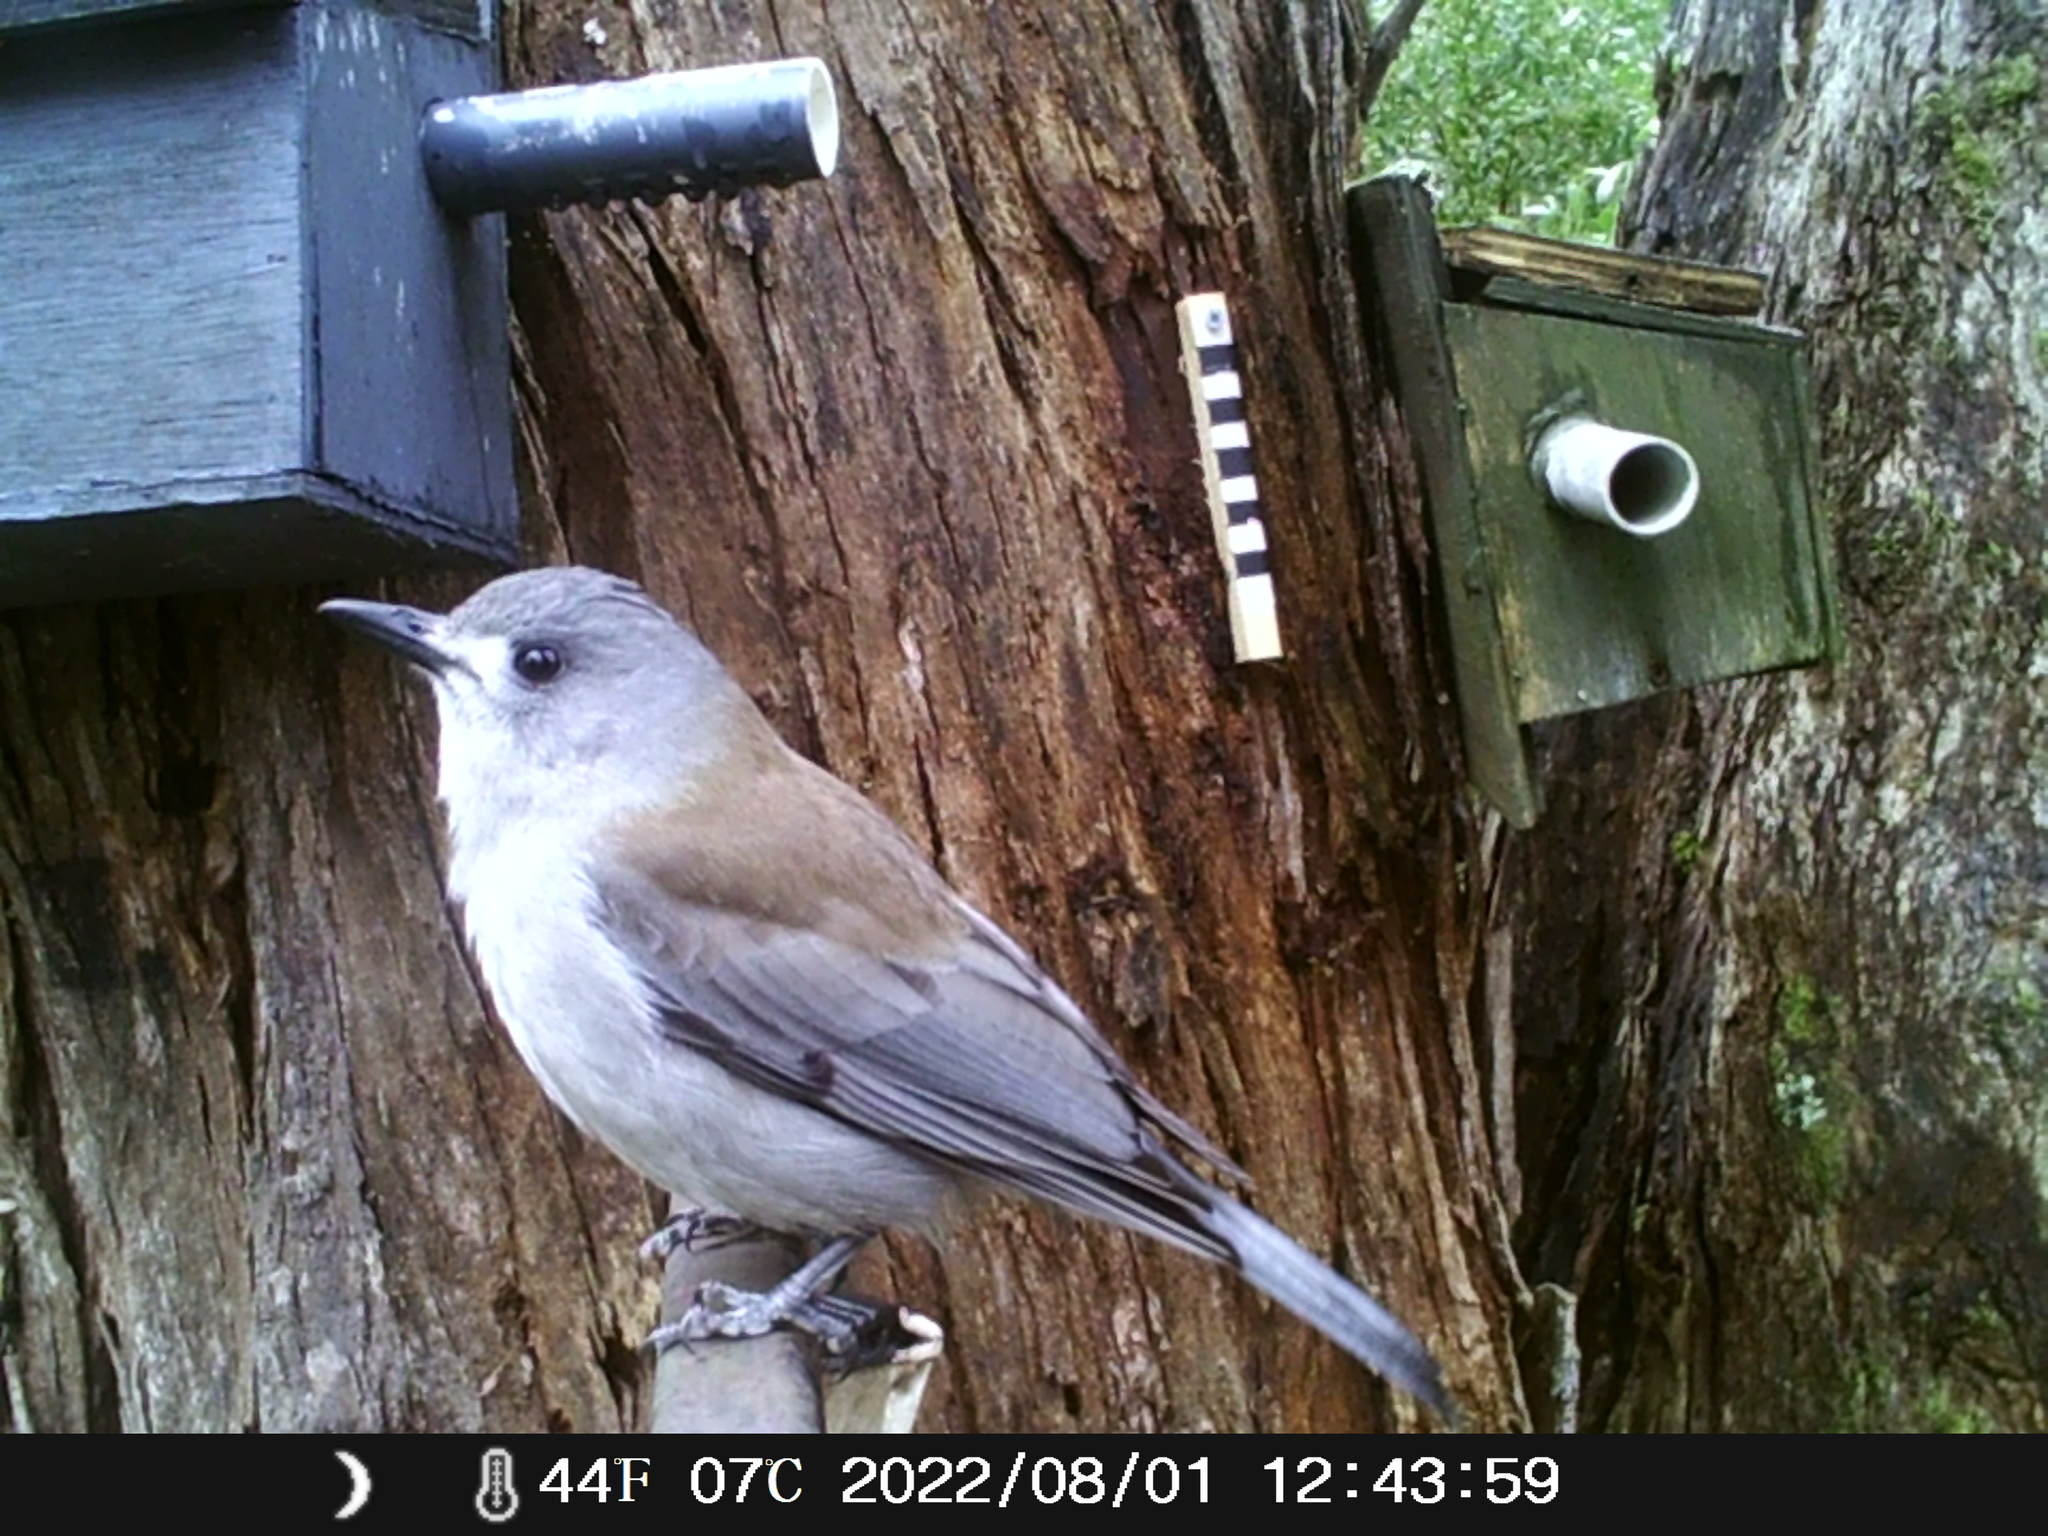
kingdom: Animalia
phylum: Chordata
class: Aves
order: Passeriformes
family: Pachycephalidae
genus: Colluricincla
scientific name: Colluricincla harmonica
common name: Grey shrikethrush
